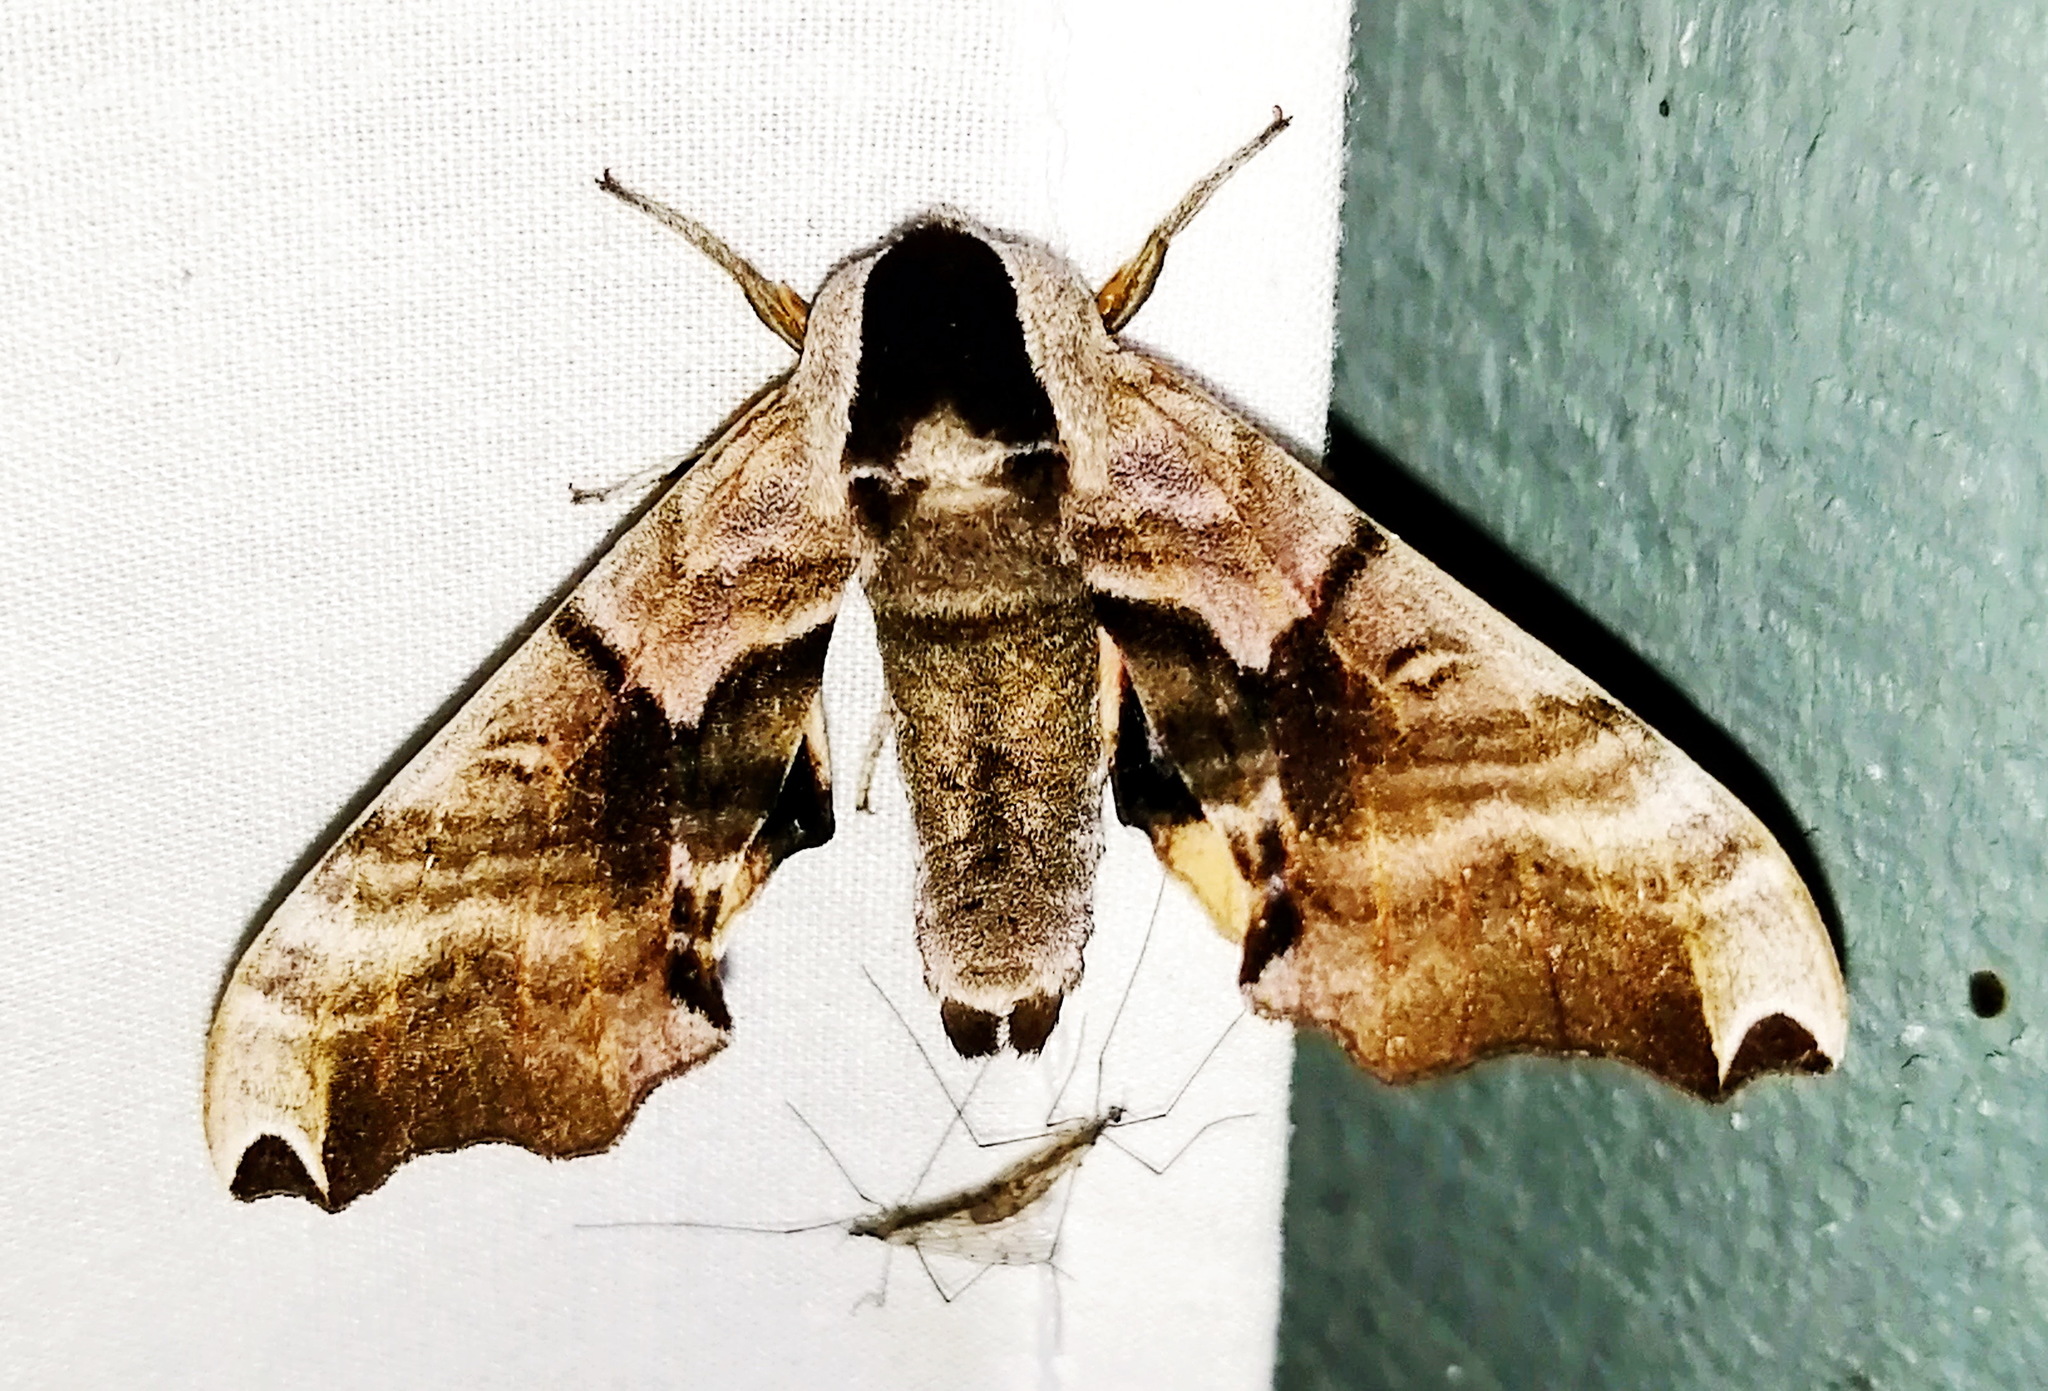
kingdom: Animalia
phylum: Arthropoda
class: Insecta
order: Lepidoptera
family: Sphingidae
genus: Smerinthus
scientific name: Smerinthus jamaicensis
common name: Twin spotted sphinx
